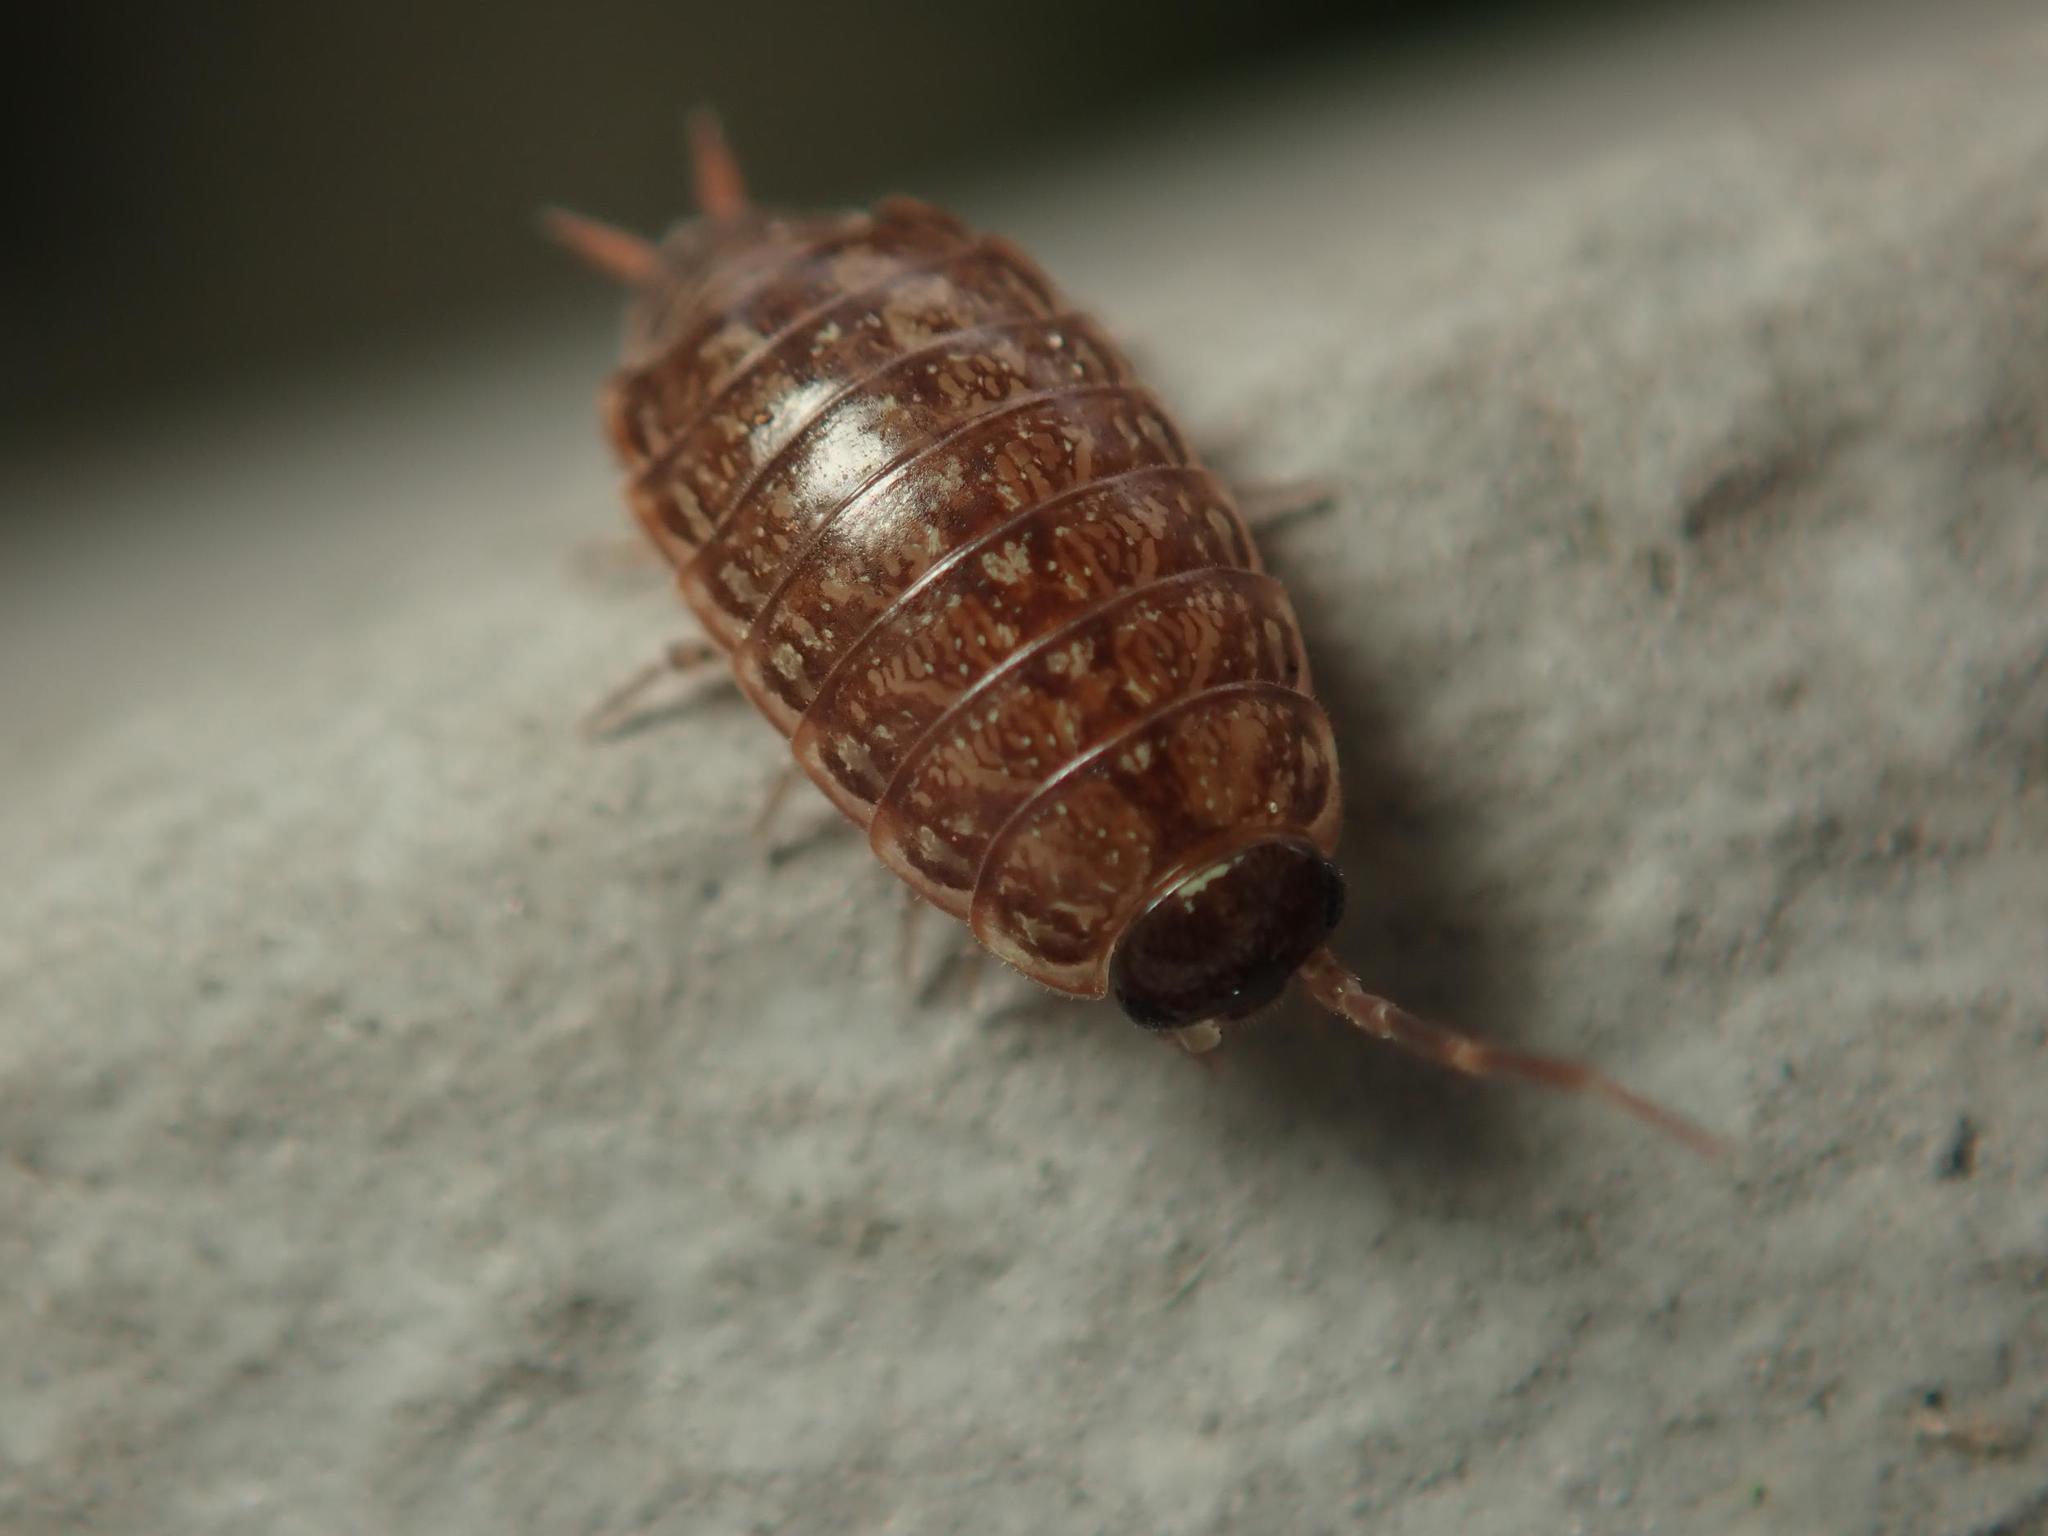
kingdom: Animalia
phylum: Arthropoda
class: Malacostraca
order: Isopoda
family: Philosciidae
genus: Philoscia
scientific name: Philoscia muscorum
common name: Common striped woodlouse
